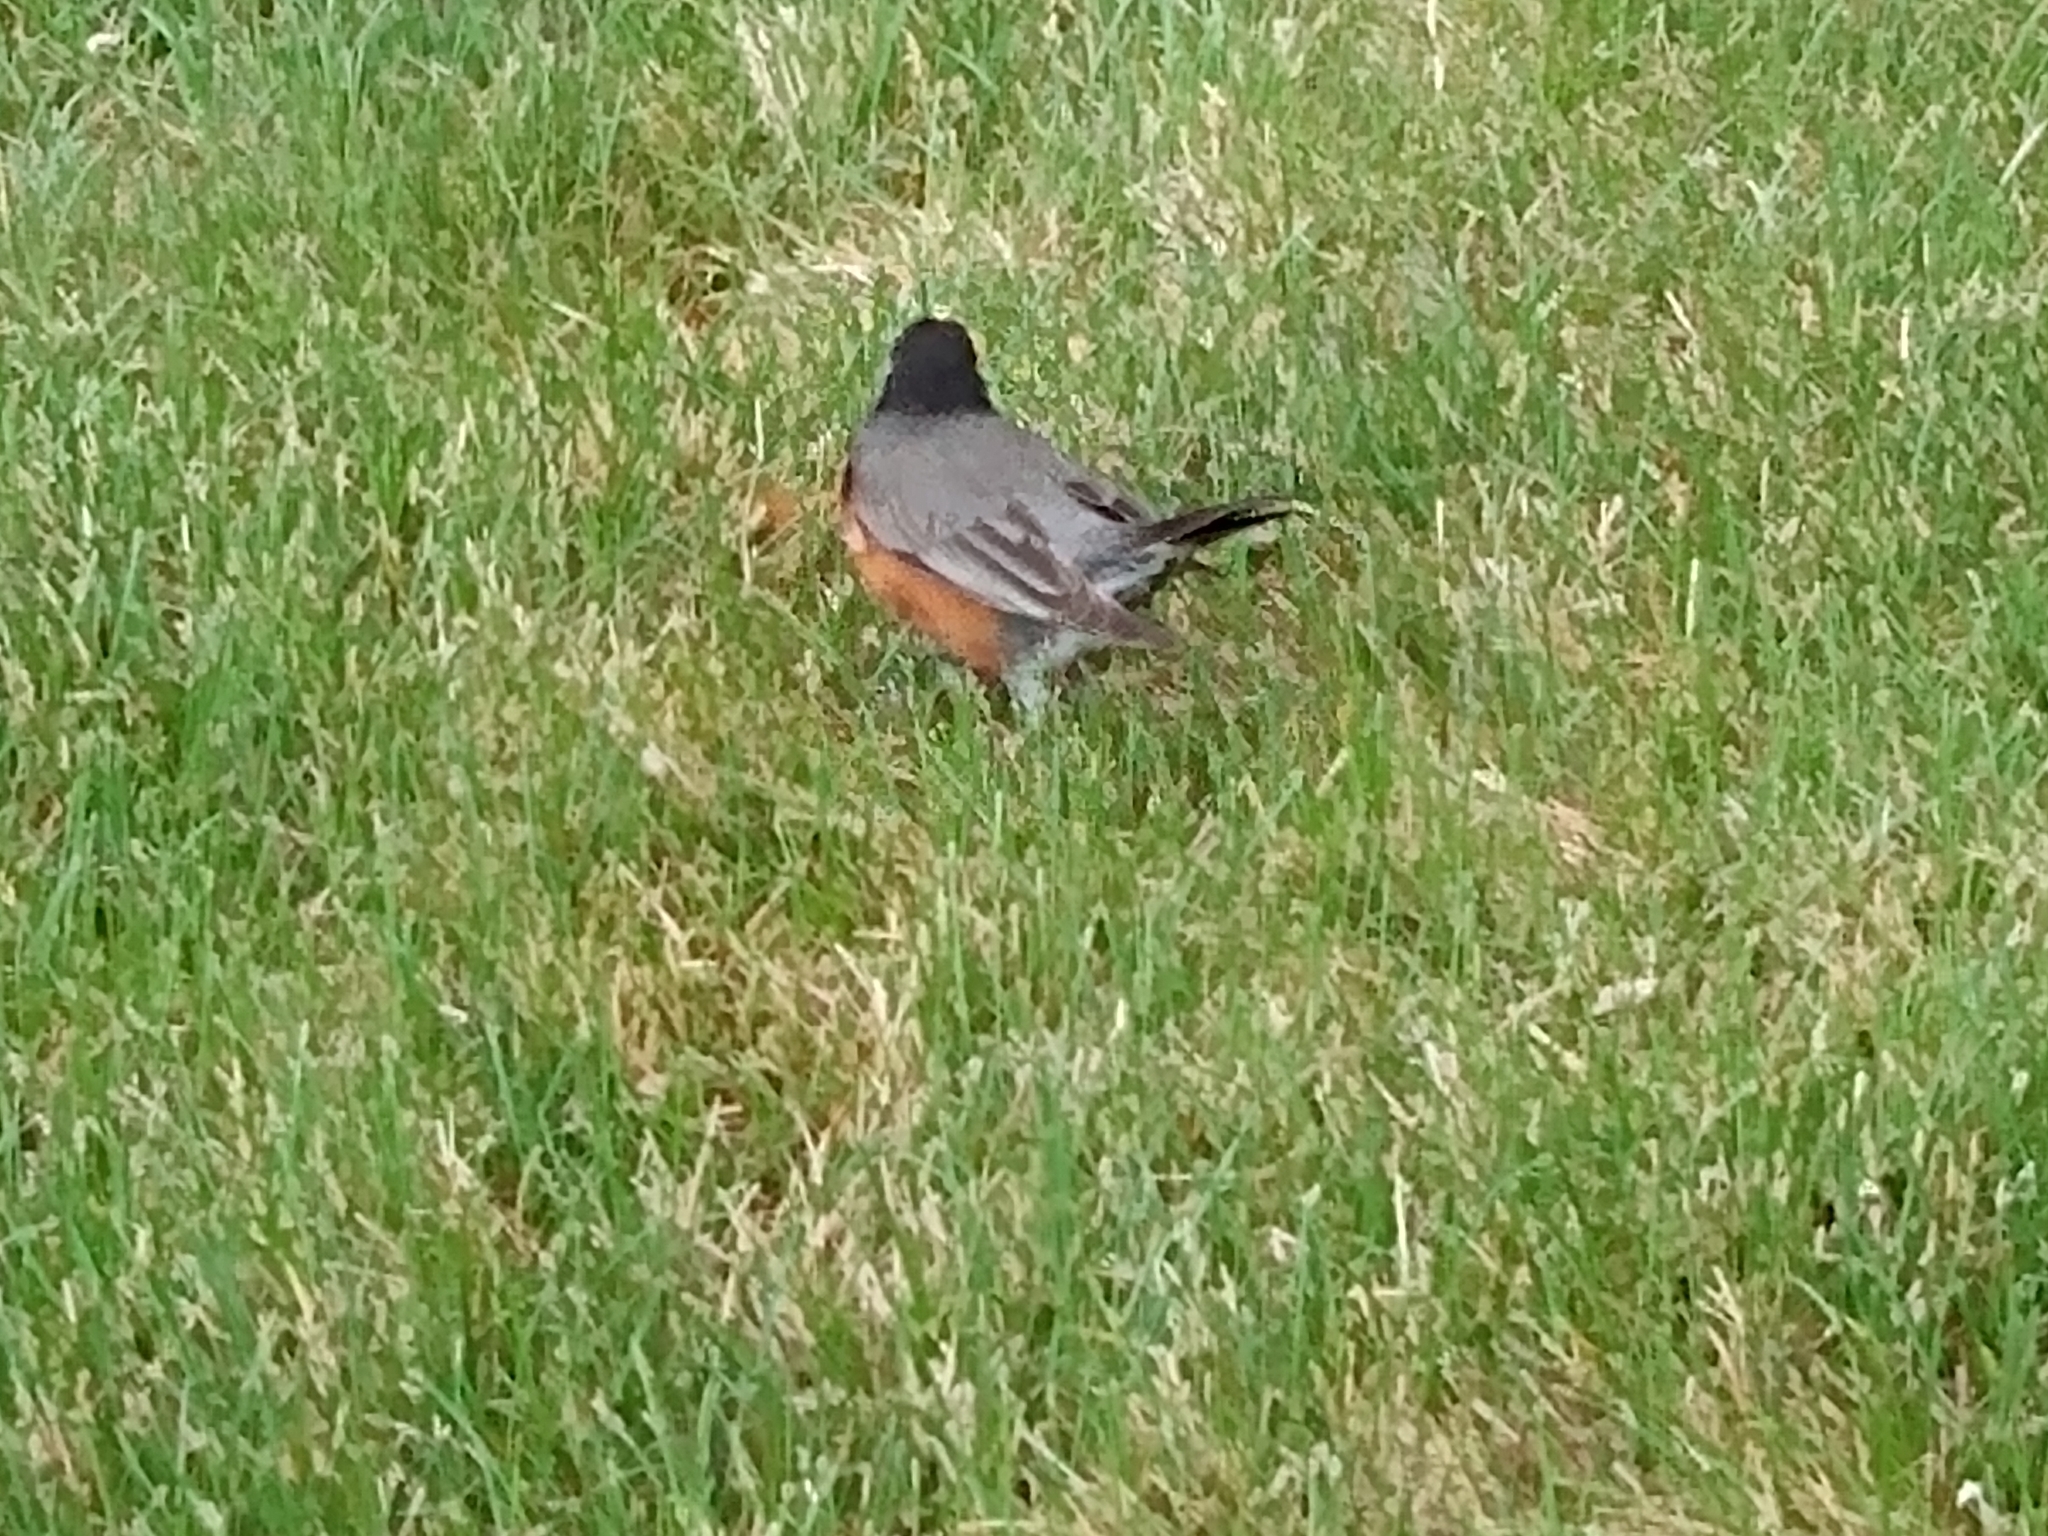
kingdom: Animalia
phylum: Chordata
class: Aves
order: Passeriformes
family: Turdidae
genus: Turdus
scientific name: Turdus migratorius
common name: American robin
